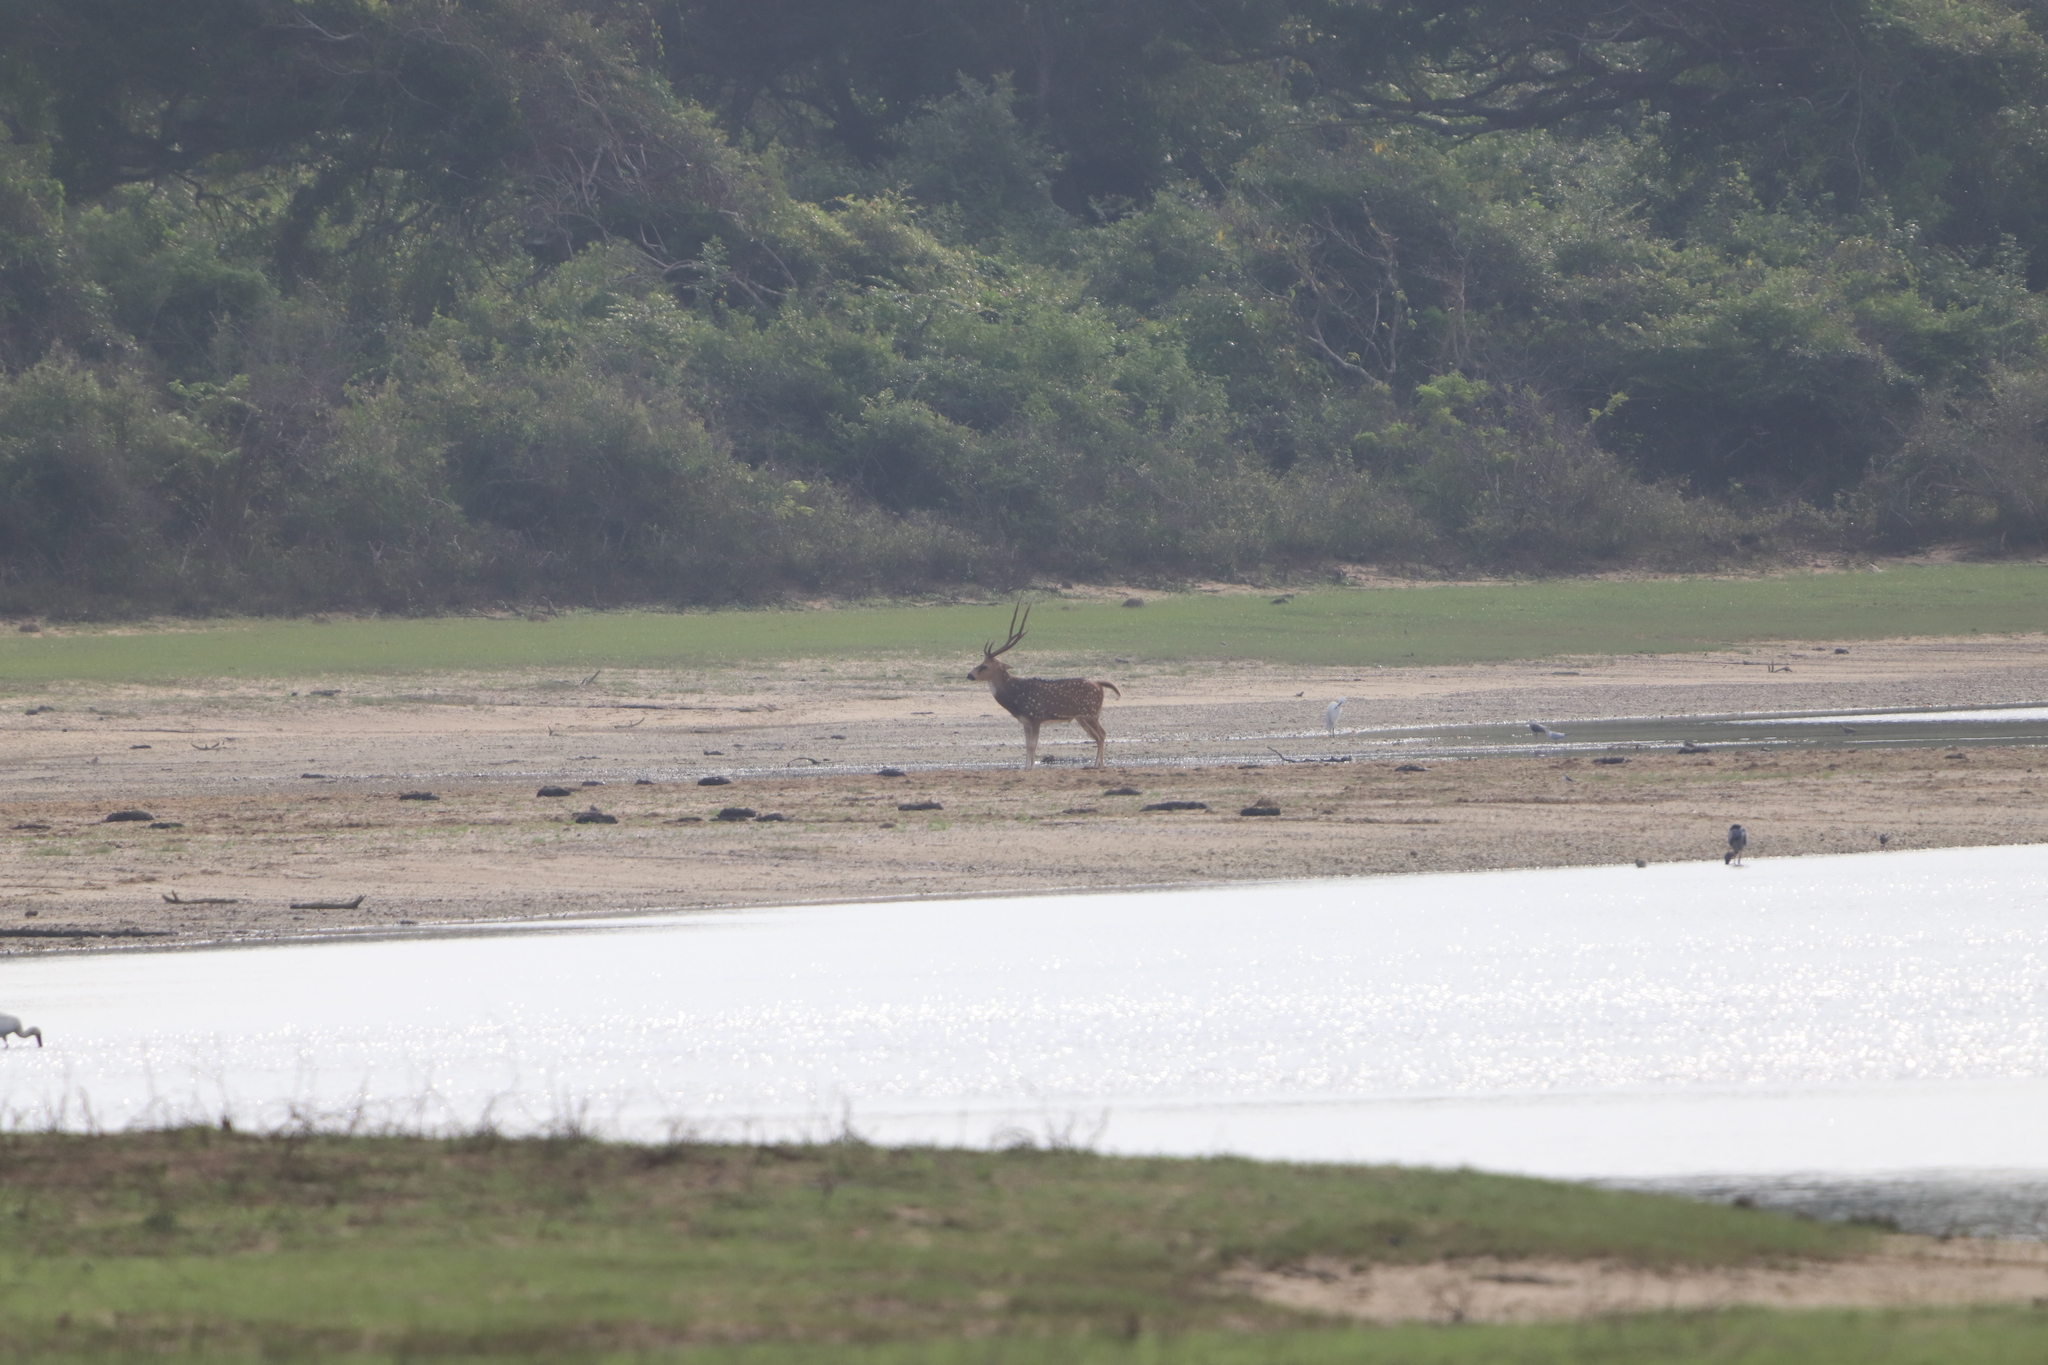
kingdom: Animalia
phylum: Chordata
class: Mammalia
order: Artiodactyla
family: Cervidae
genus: Axis
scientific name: Axis axis
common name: Chital
